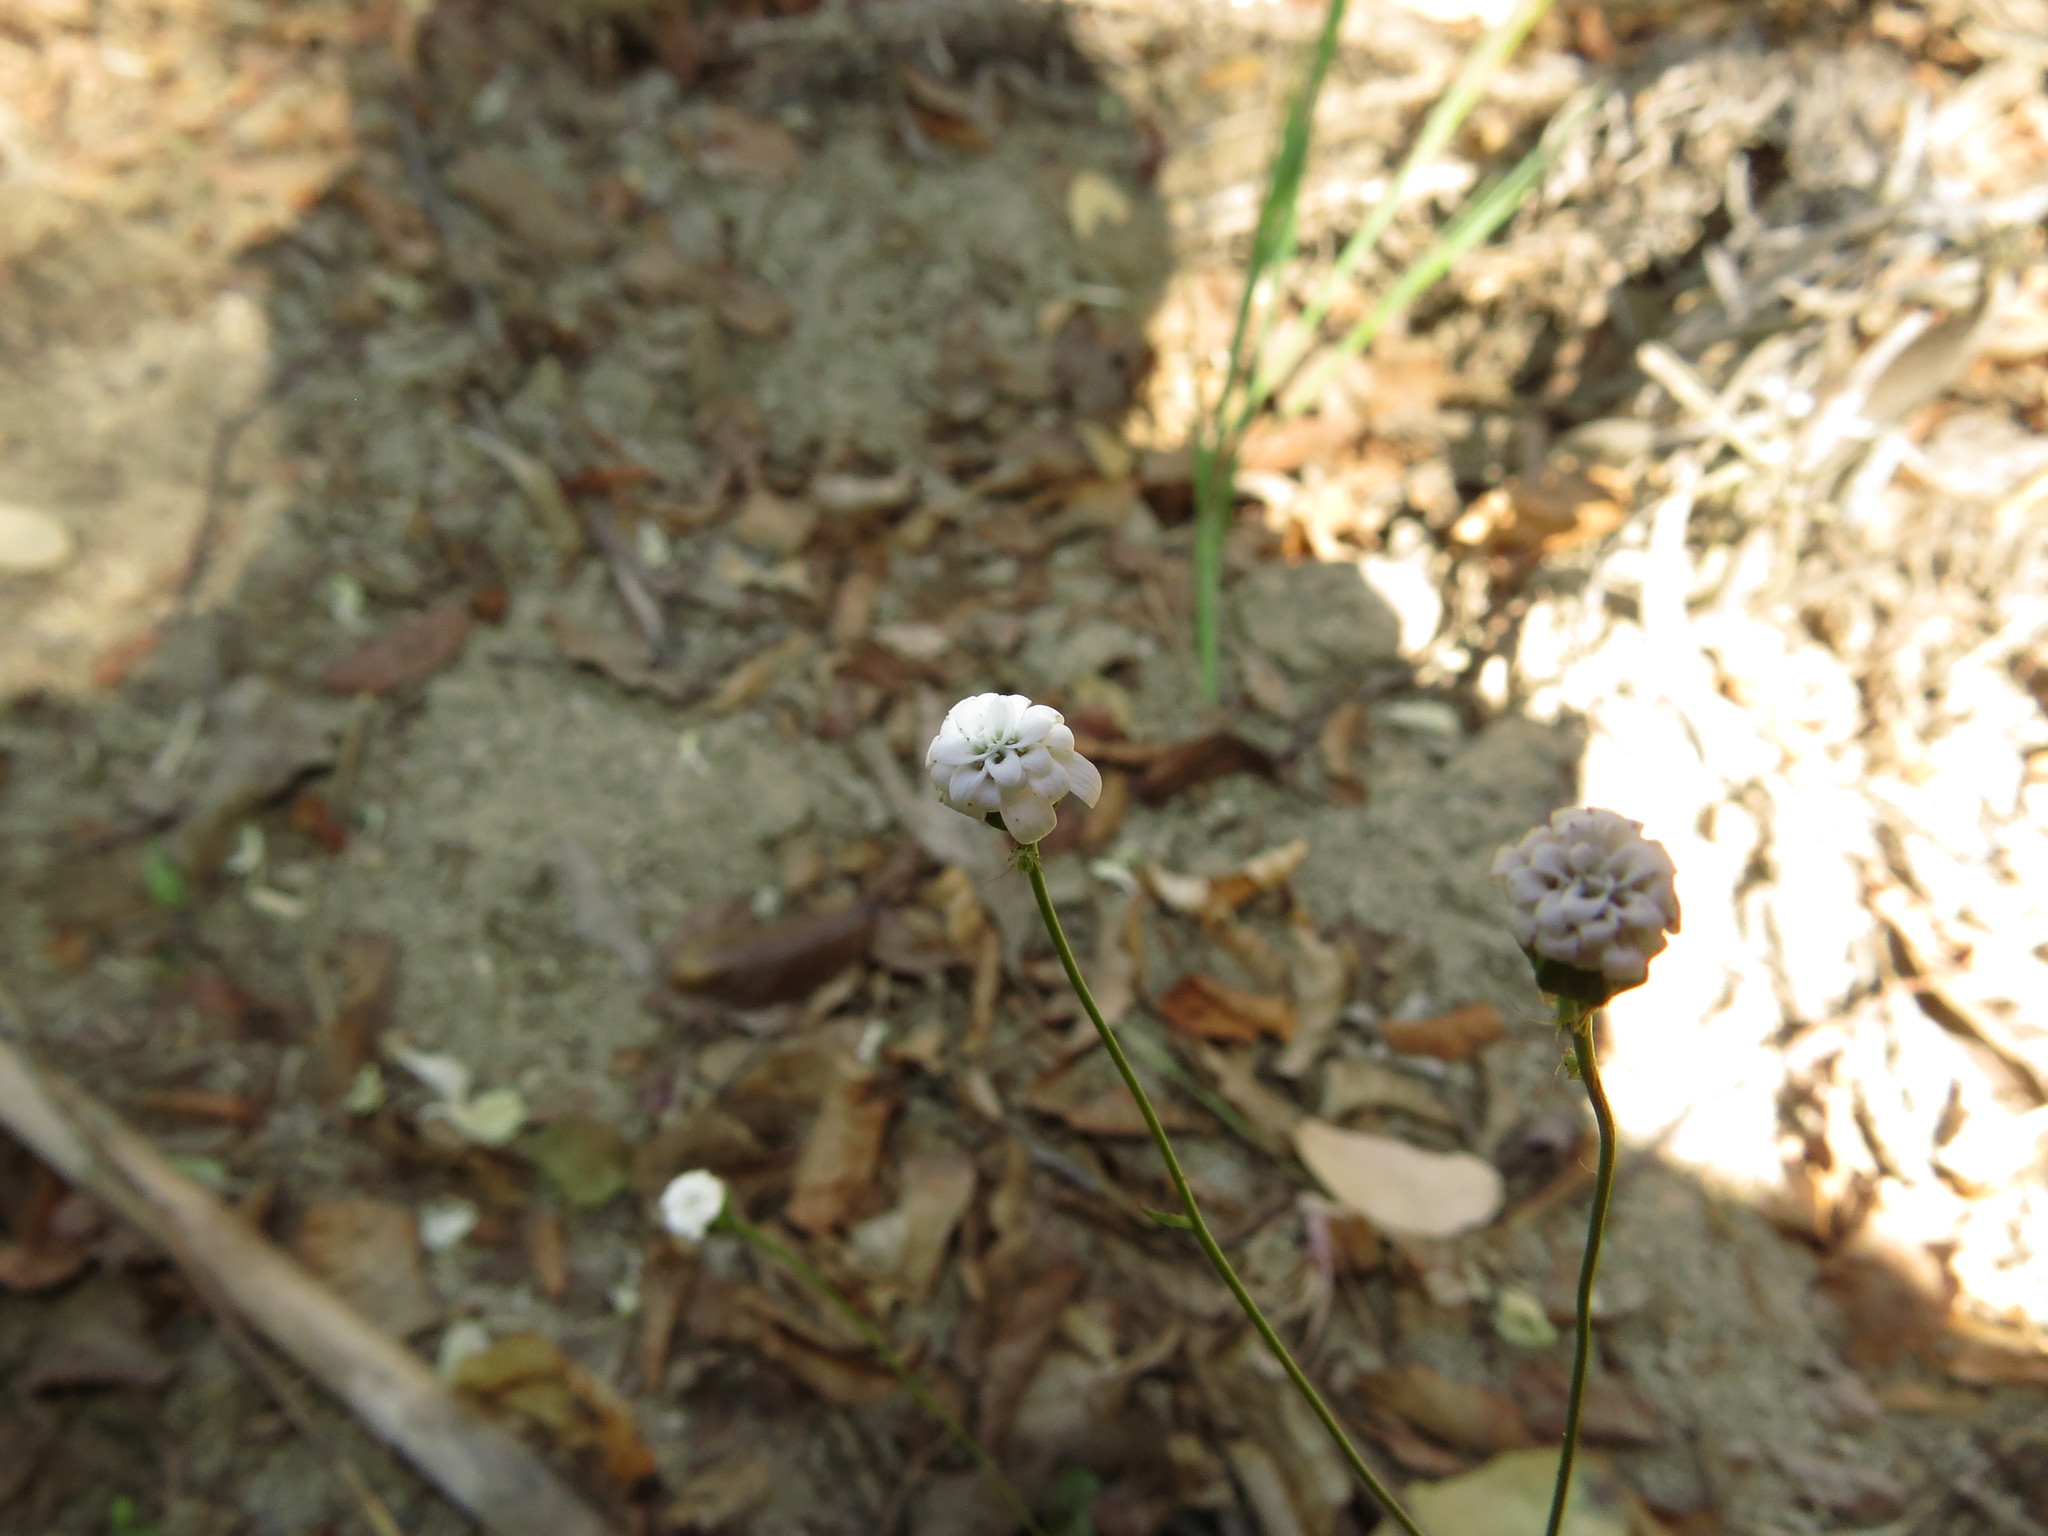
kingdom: Plantae
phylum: Tracheophyta
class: Magnoliopsida
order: Asterales
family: Asteraceae
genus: Leucheria
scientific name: Leucheria tenuis
